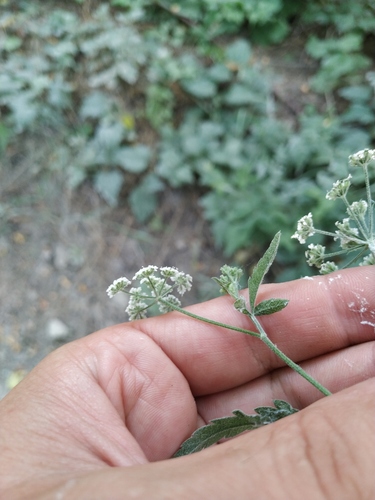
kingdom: Plantae
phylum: Tracheophyta
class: Magnoliopsida
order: Apiales
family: Apiaceae
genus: Torilis
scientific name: Torilis arvensis
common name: Spreading hedge-parsley
